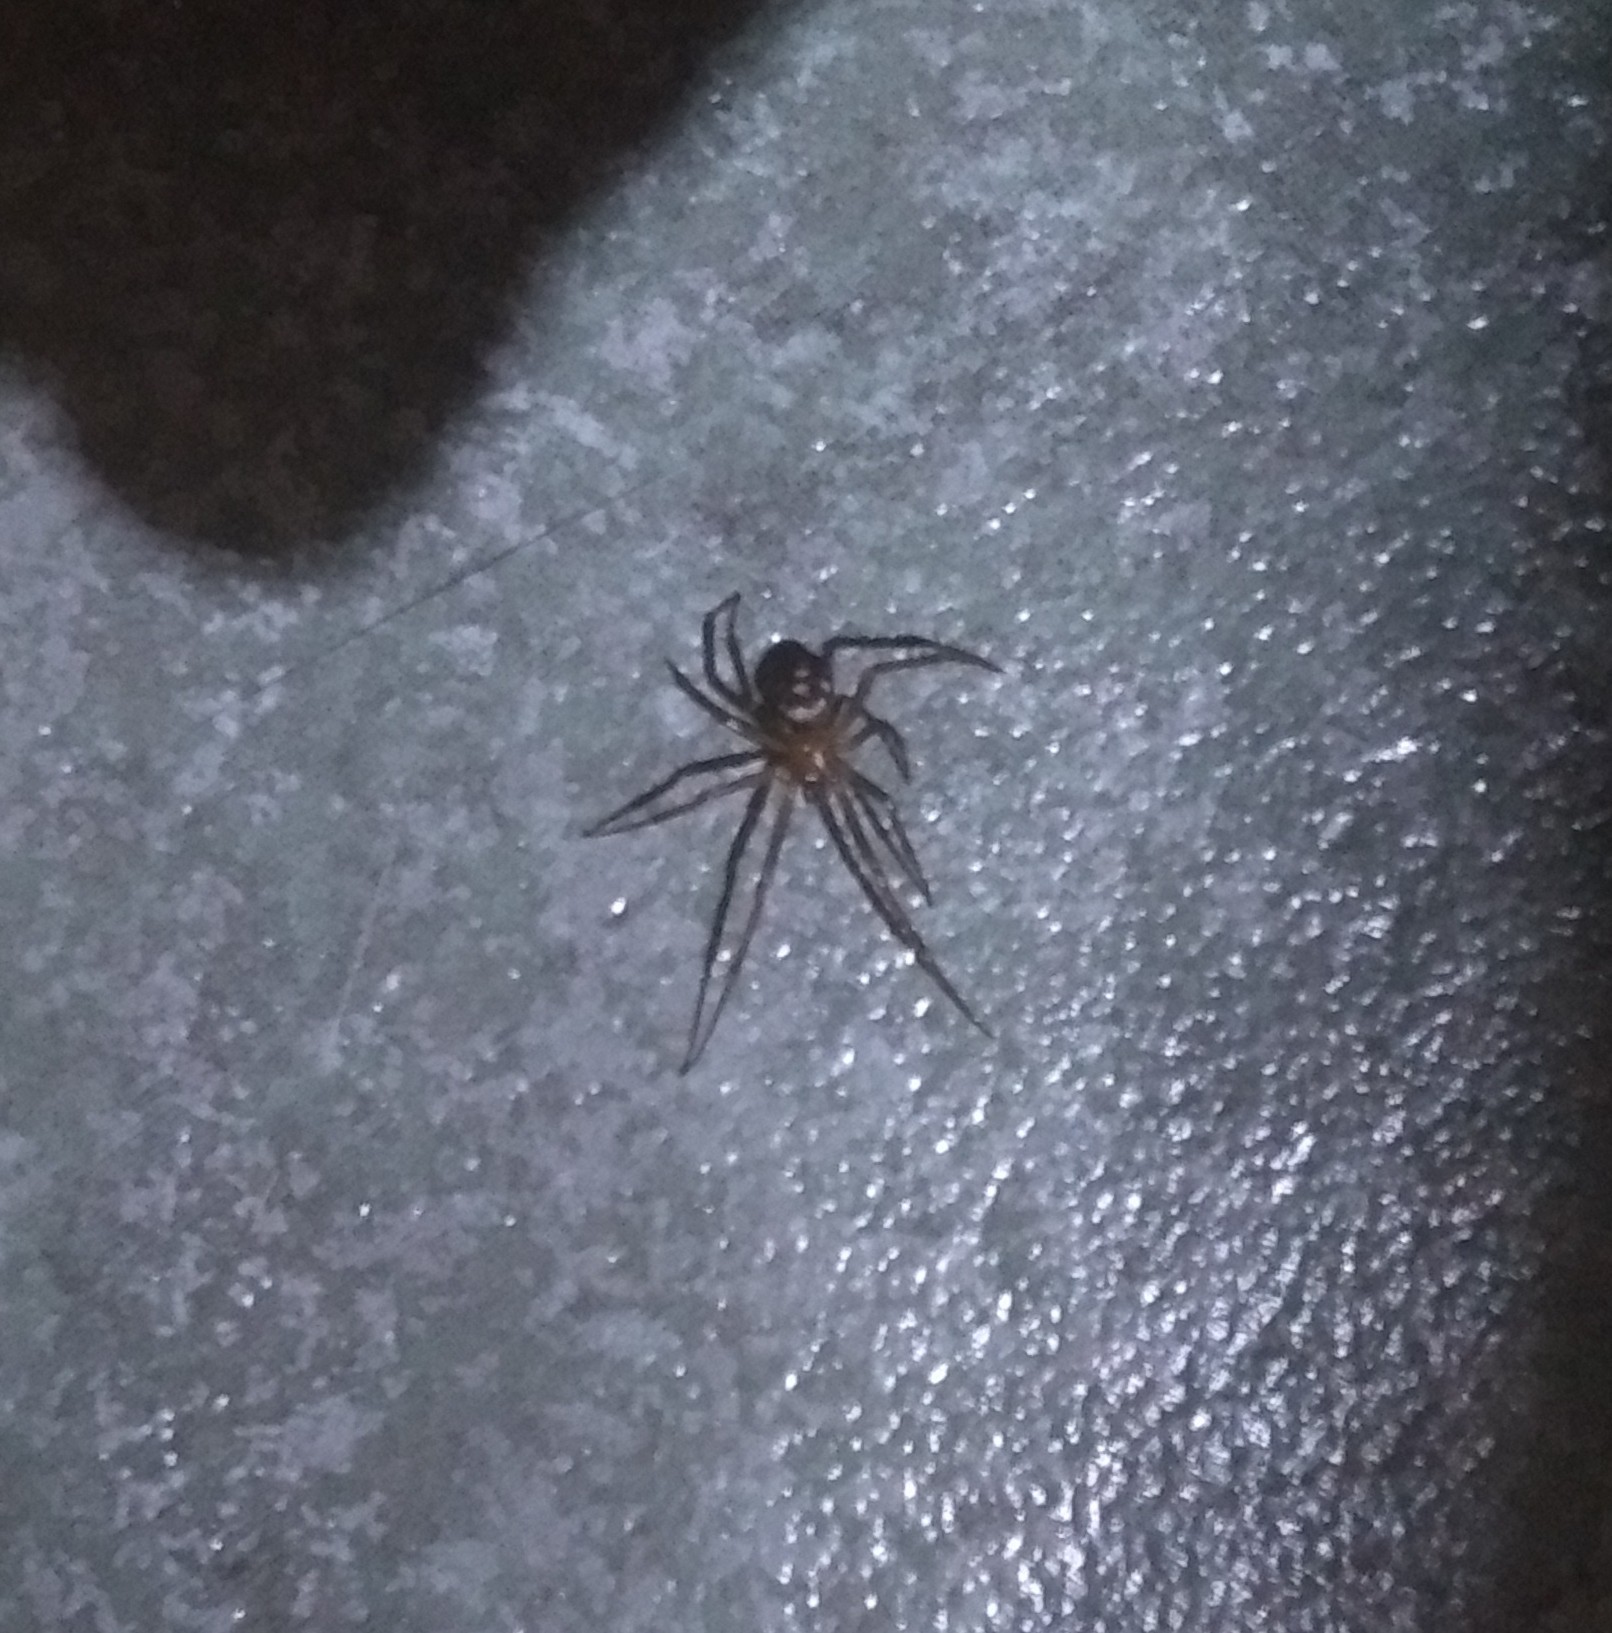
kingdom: Animalia
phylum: Arthropoda
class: Arachnida
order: Araneae
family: Theridiidae
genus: Steatoda
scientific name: Steatoda grossa
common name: False black widow
